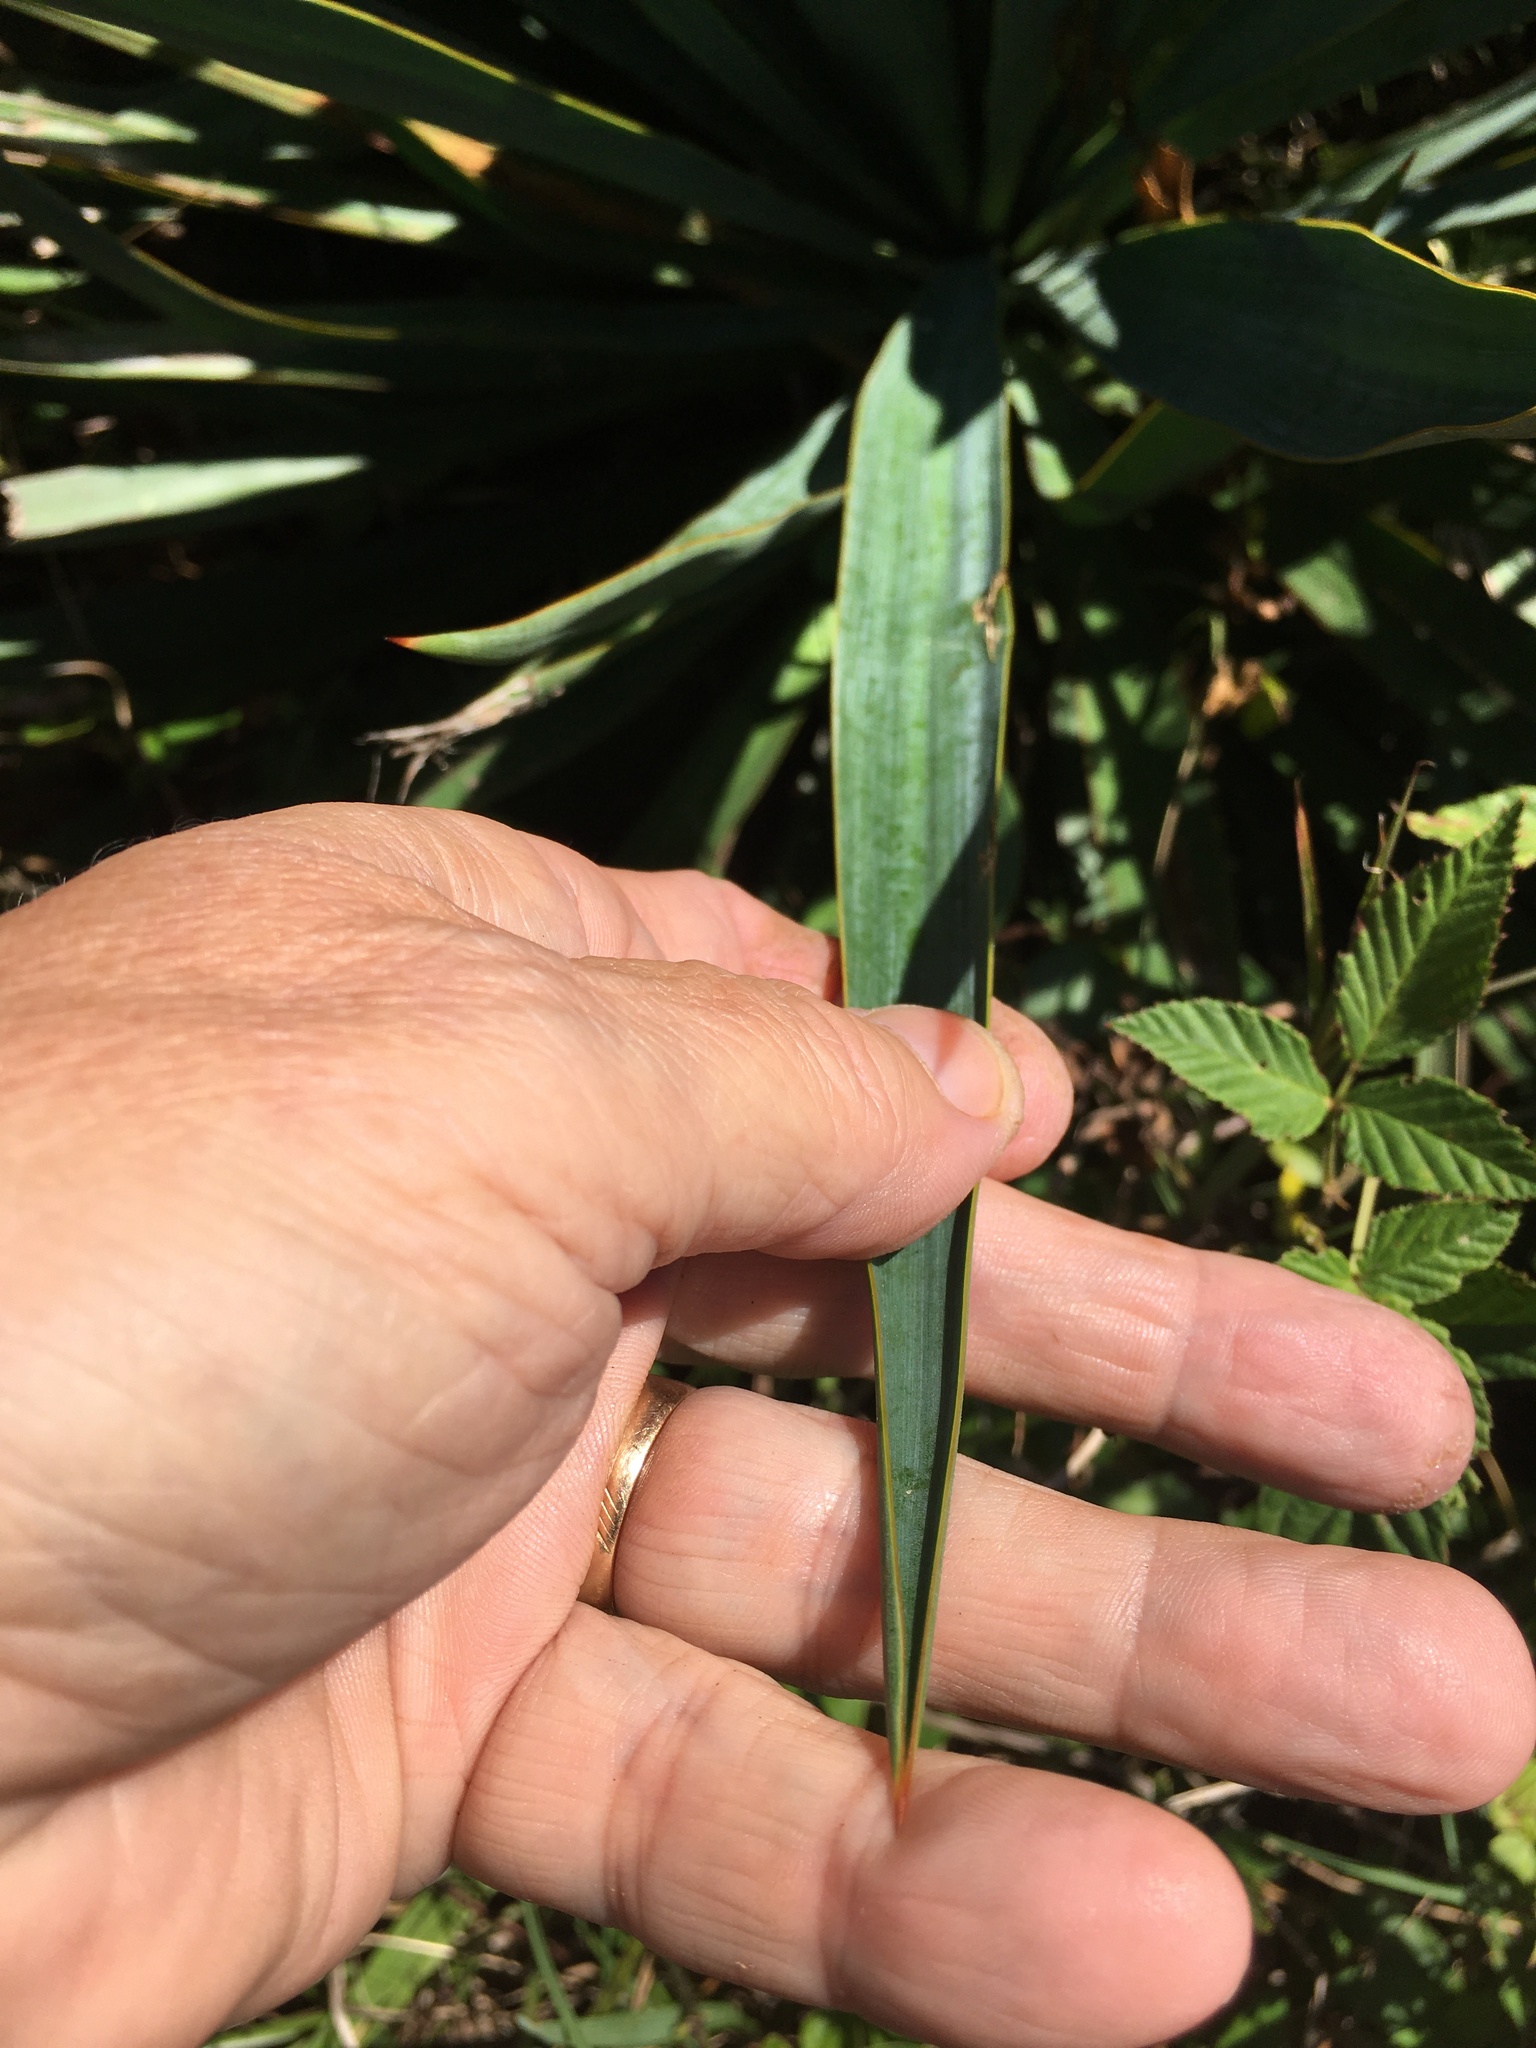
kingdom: Plantae
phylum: Tracheophyta
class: Liliopsida
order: Asparagales
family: Asparagaceae
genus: Yucca
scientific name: Yucca gloriosa
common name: Spanish-dagger
